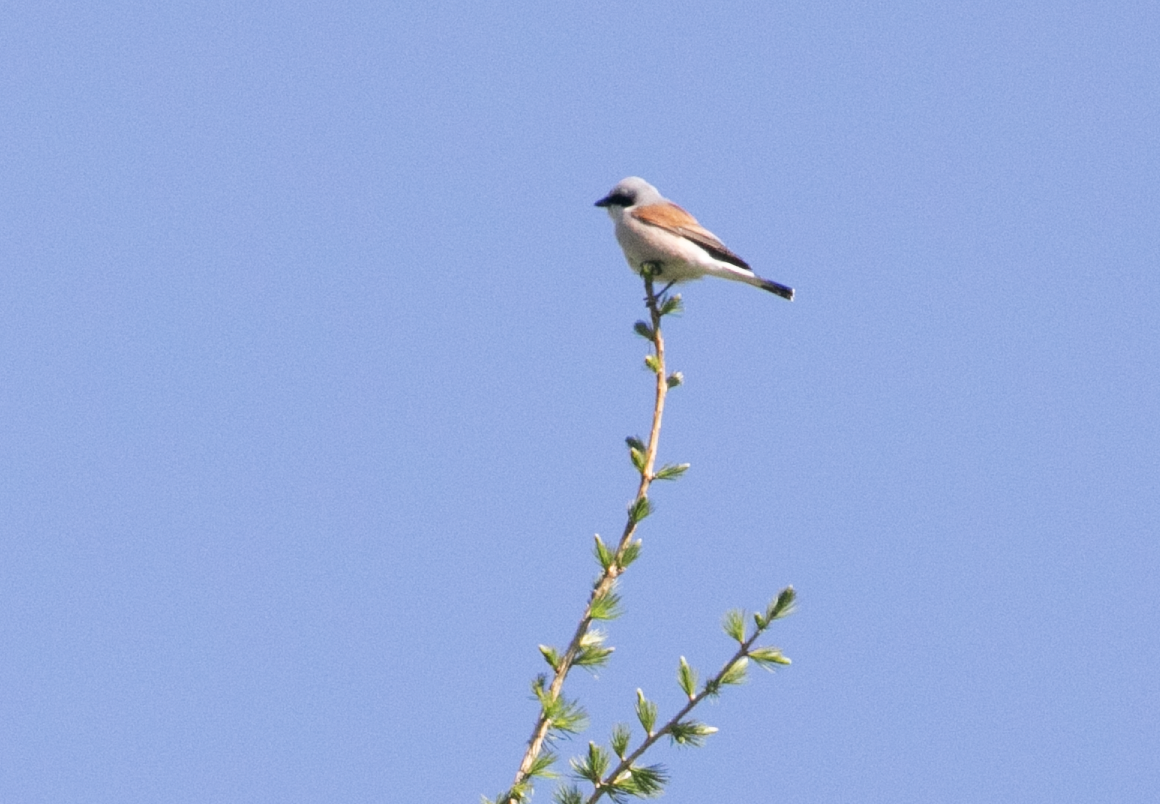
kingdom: Animalia
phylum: Chordata
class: Aves
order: Passeriformes
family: Laniidae
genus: Lanius
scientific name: Lanius collurio
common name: Red-backed shrike
